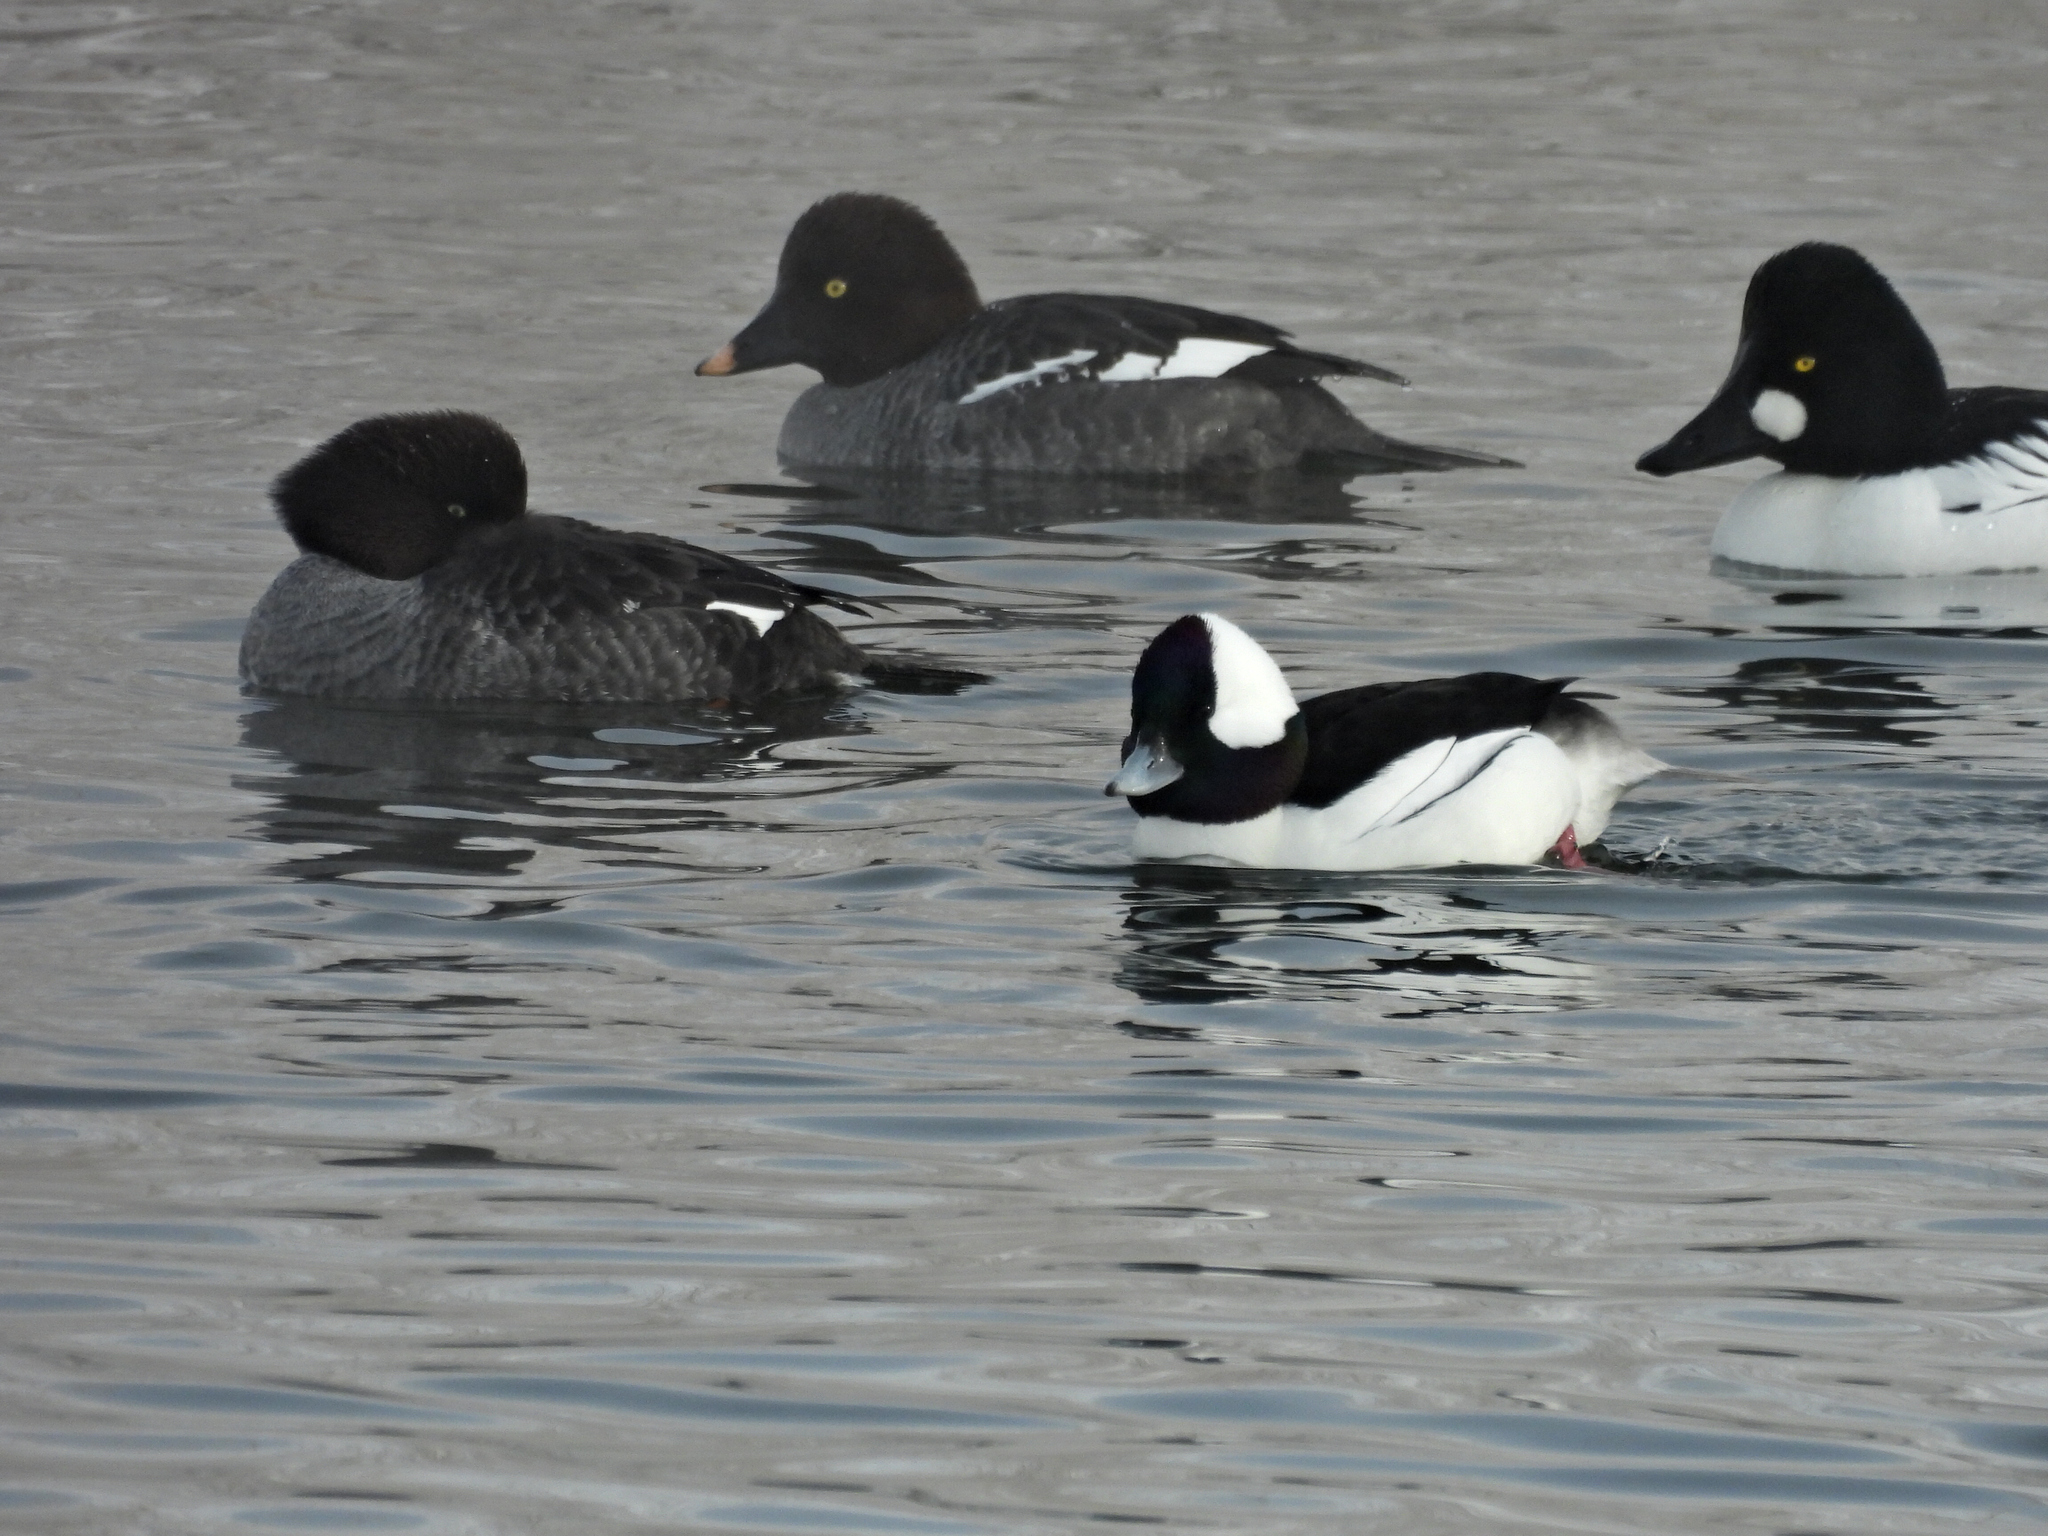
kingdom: Animalia
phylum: Chordata
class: Aves
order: Anseriformes
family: Anatidae
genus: Bucephala
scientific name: Bucephala albeola
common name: Bufflehead
